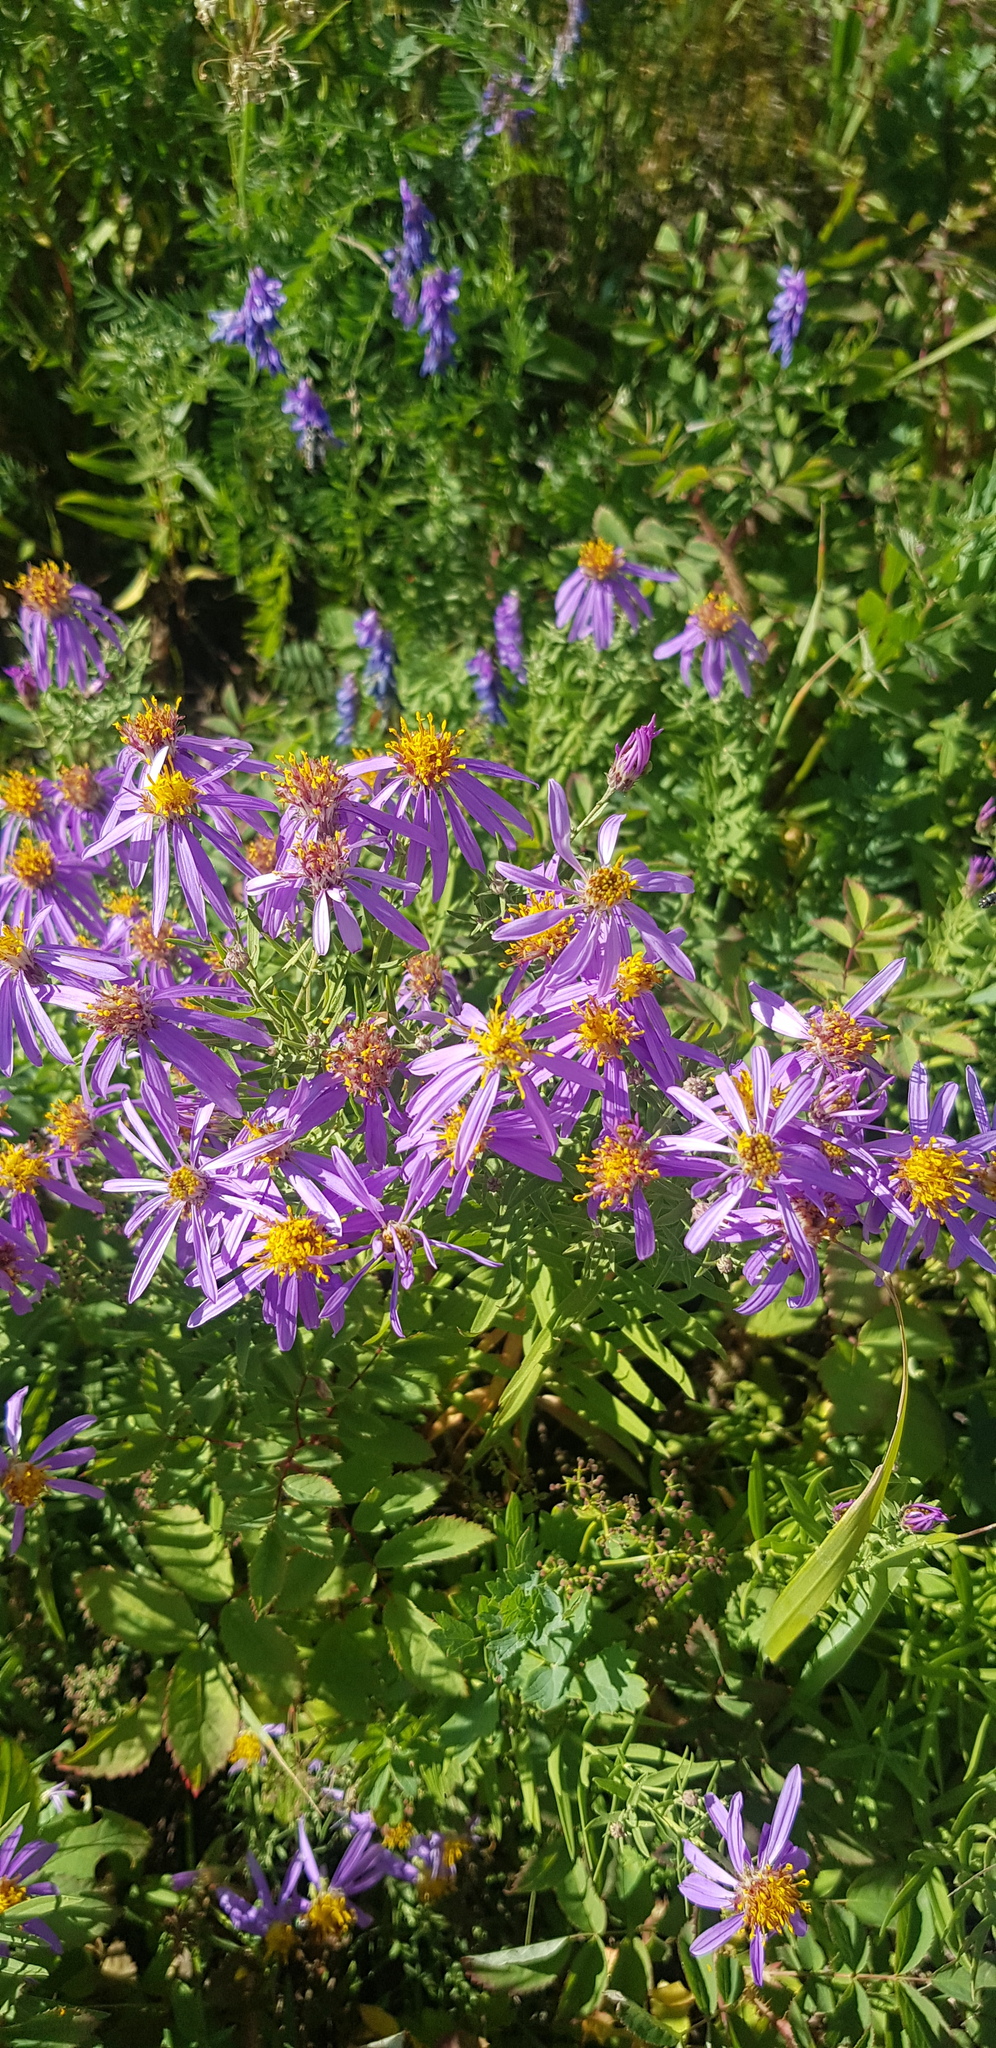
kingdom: Plantae
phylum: Tracheophyta
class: Magnoliopsida
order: Asterales
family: Asteraceae
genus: Galatella
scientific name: Galatella dahurica
